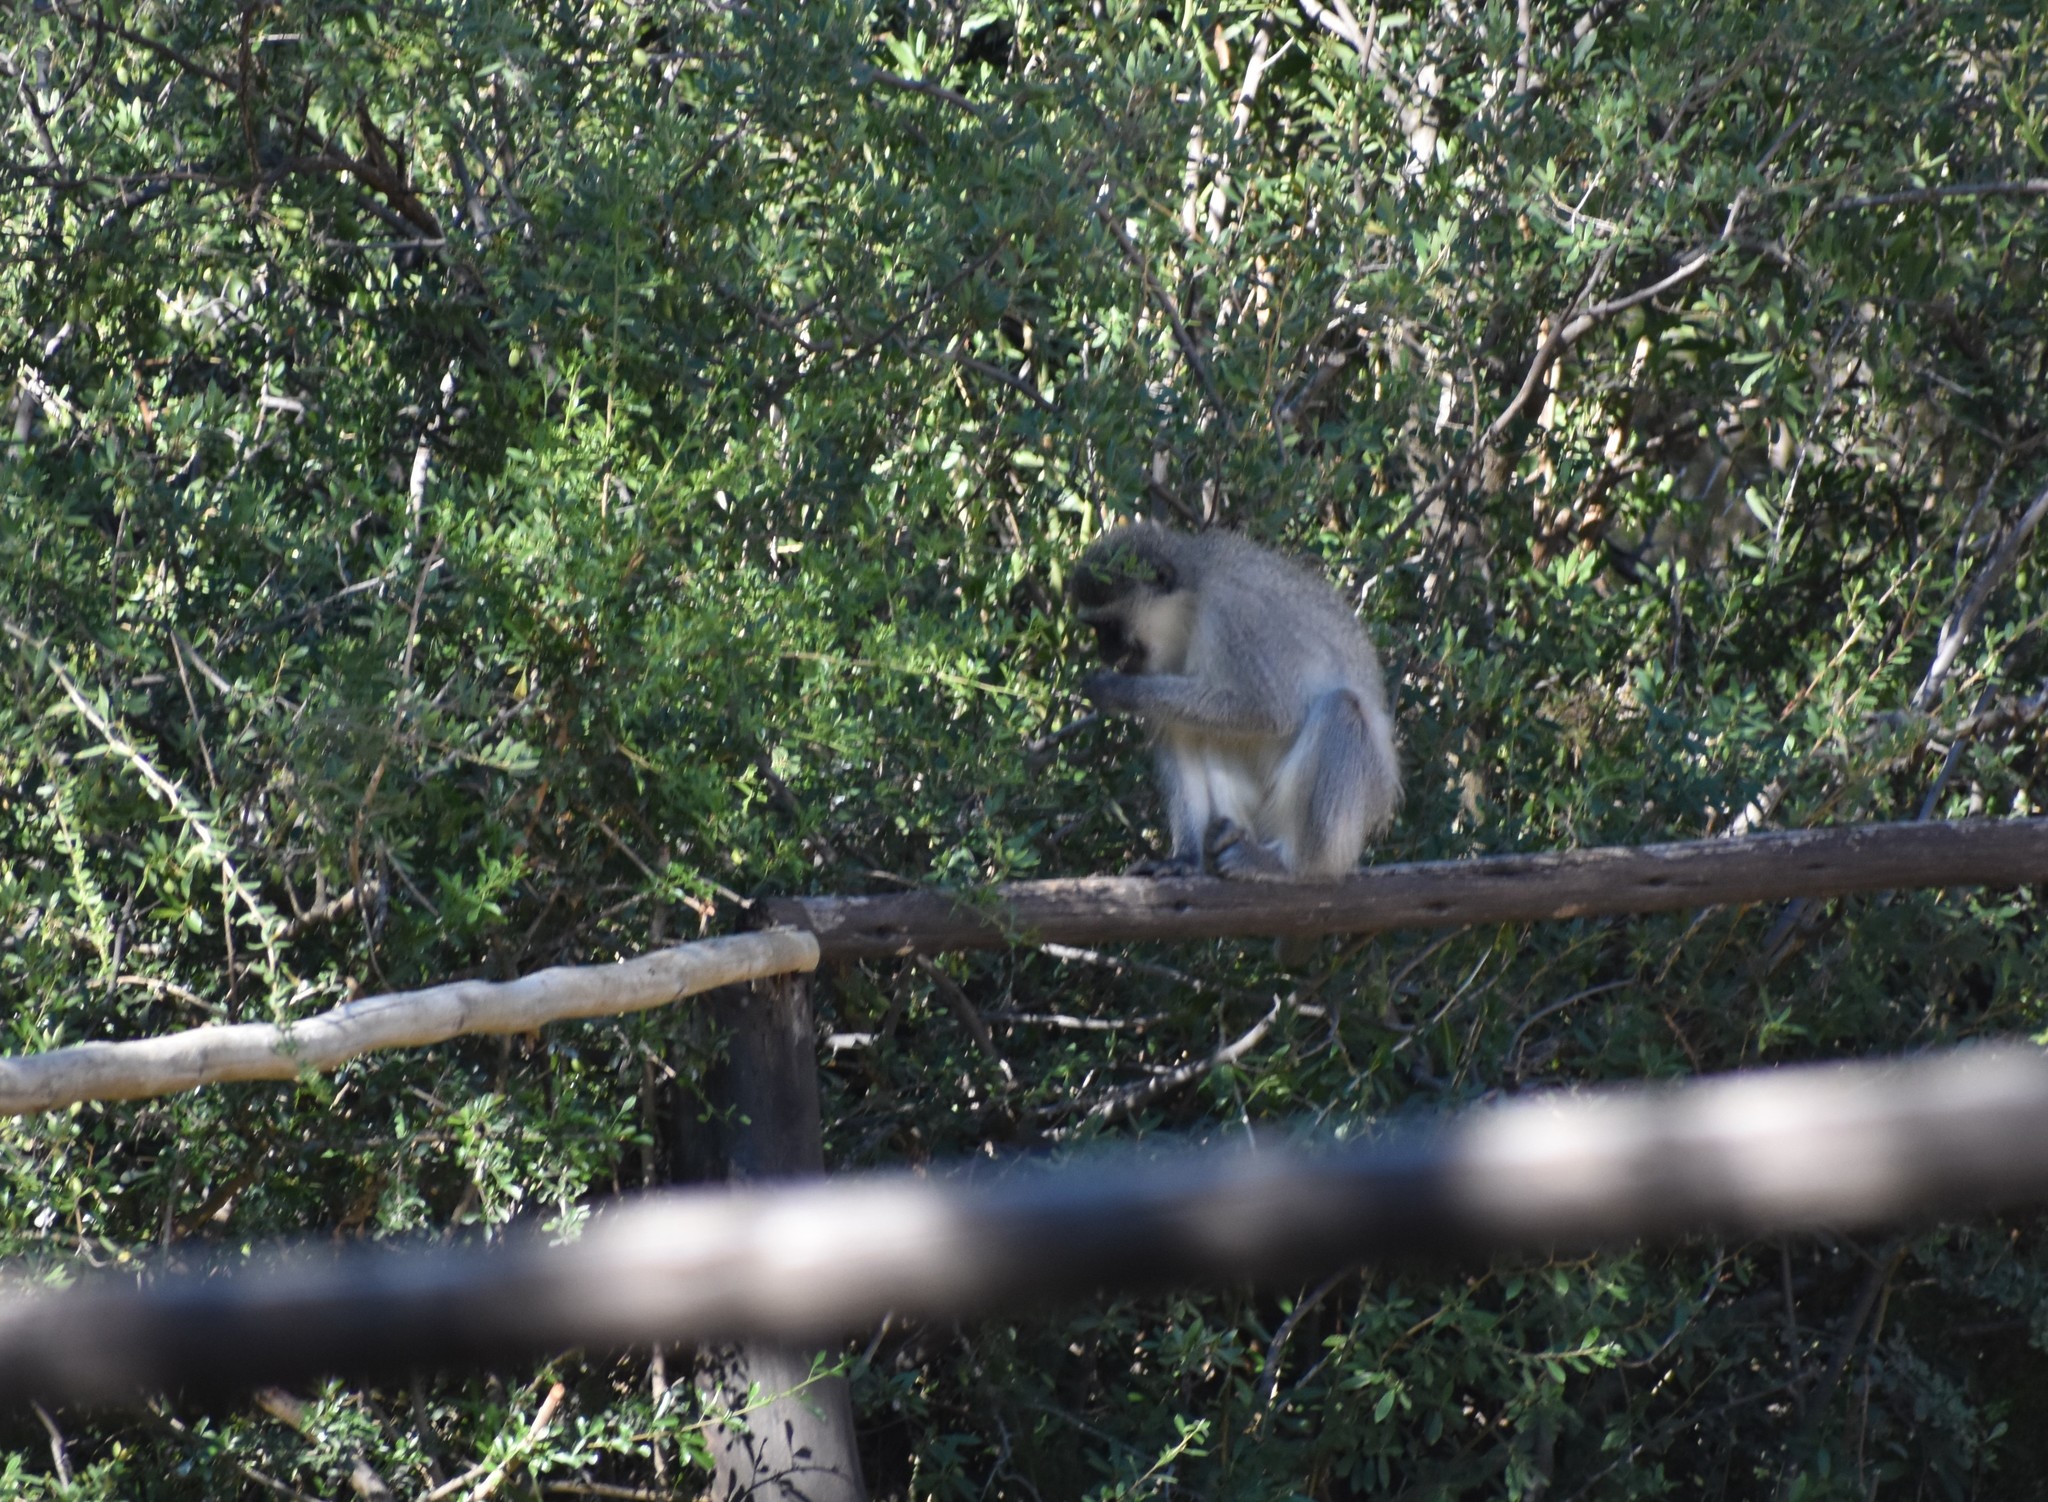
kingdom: Animalia
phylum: Chordata
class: Mammalia
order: Primates
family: Cercopithecidae
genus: Chlorocebus
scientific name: Chlorocebus pygerythrus
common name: Vervet monkey
